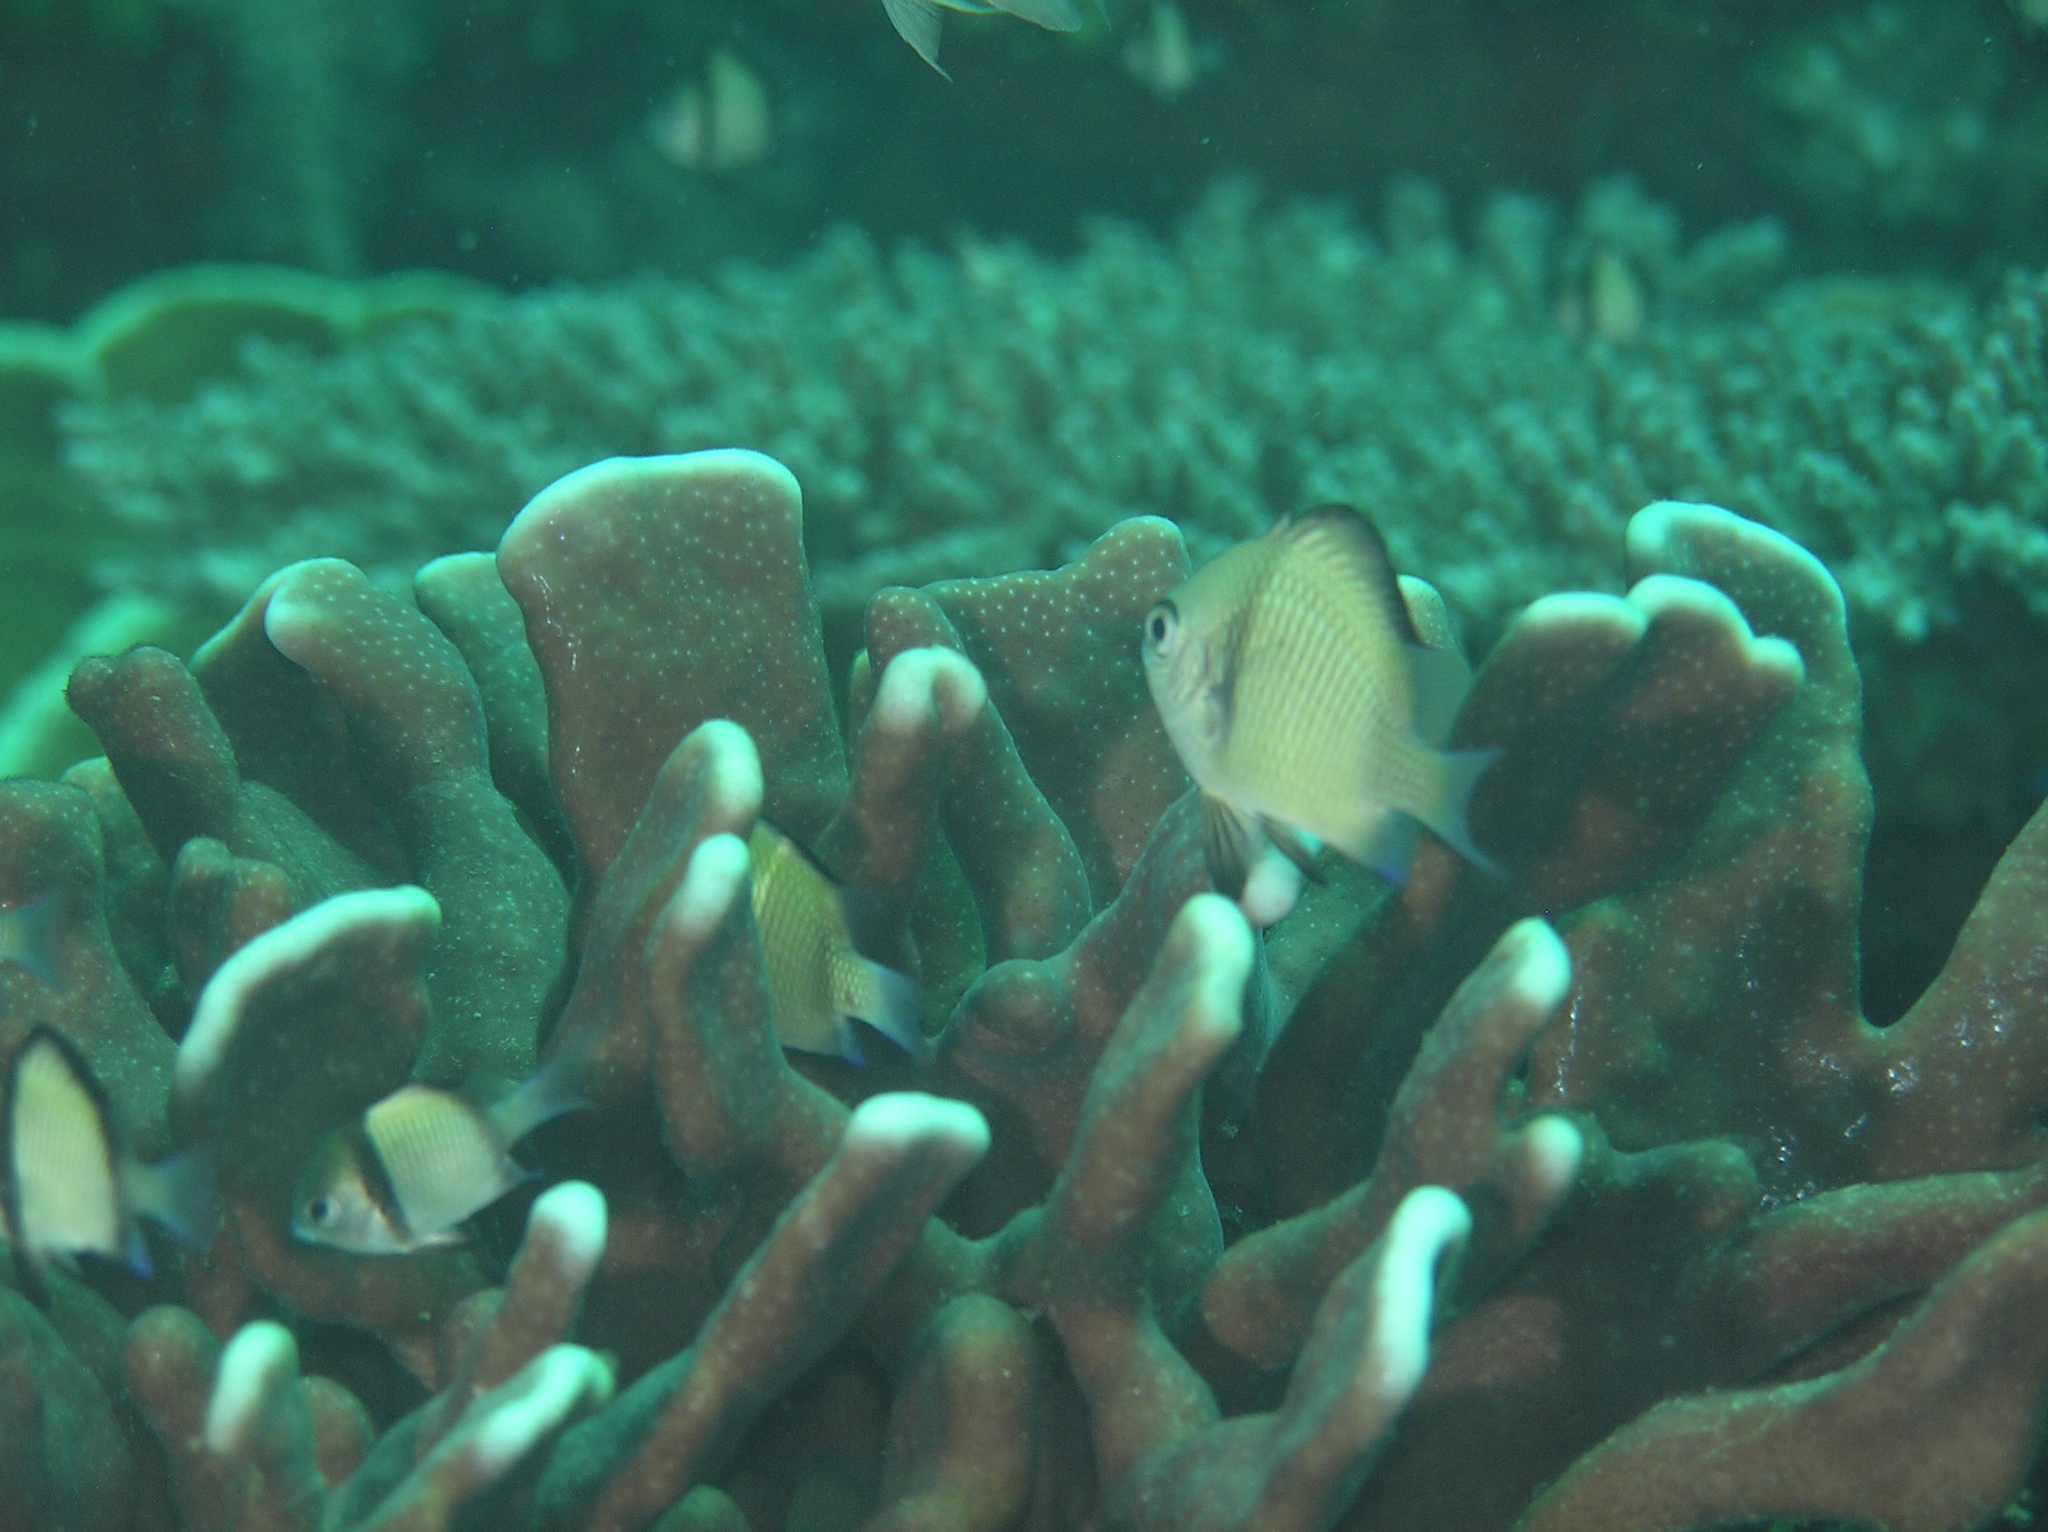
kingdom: Animalia
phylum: Chordata
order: Perciformes
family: Pomacentridae
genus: Dascyllus
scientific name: Dascyllus reticulatus
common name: Reticulated dascyllus
